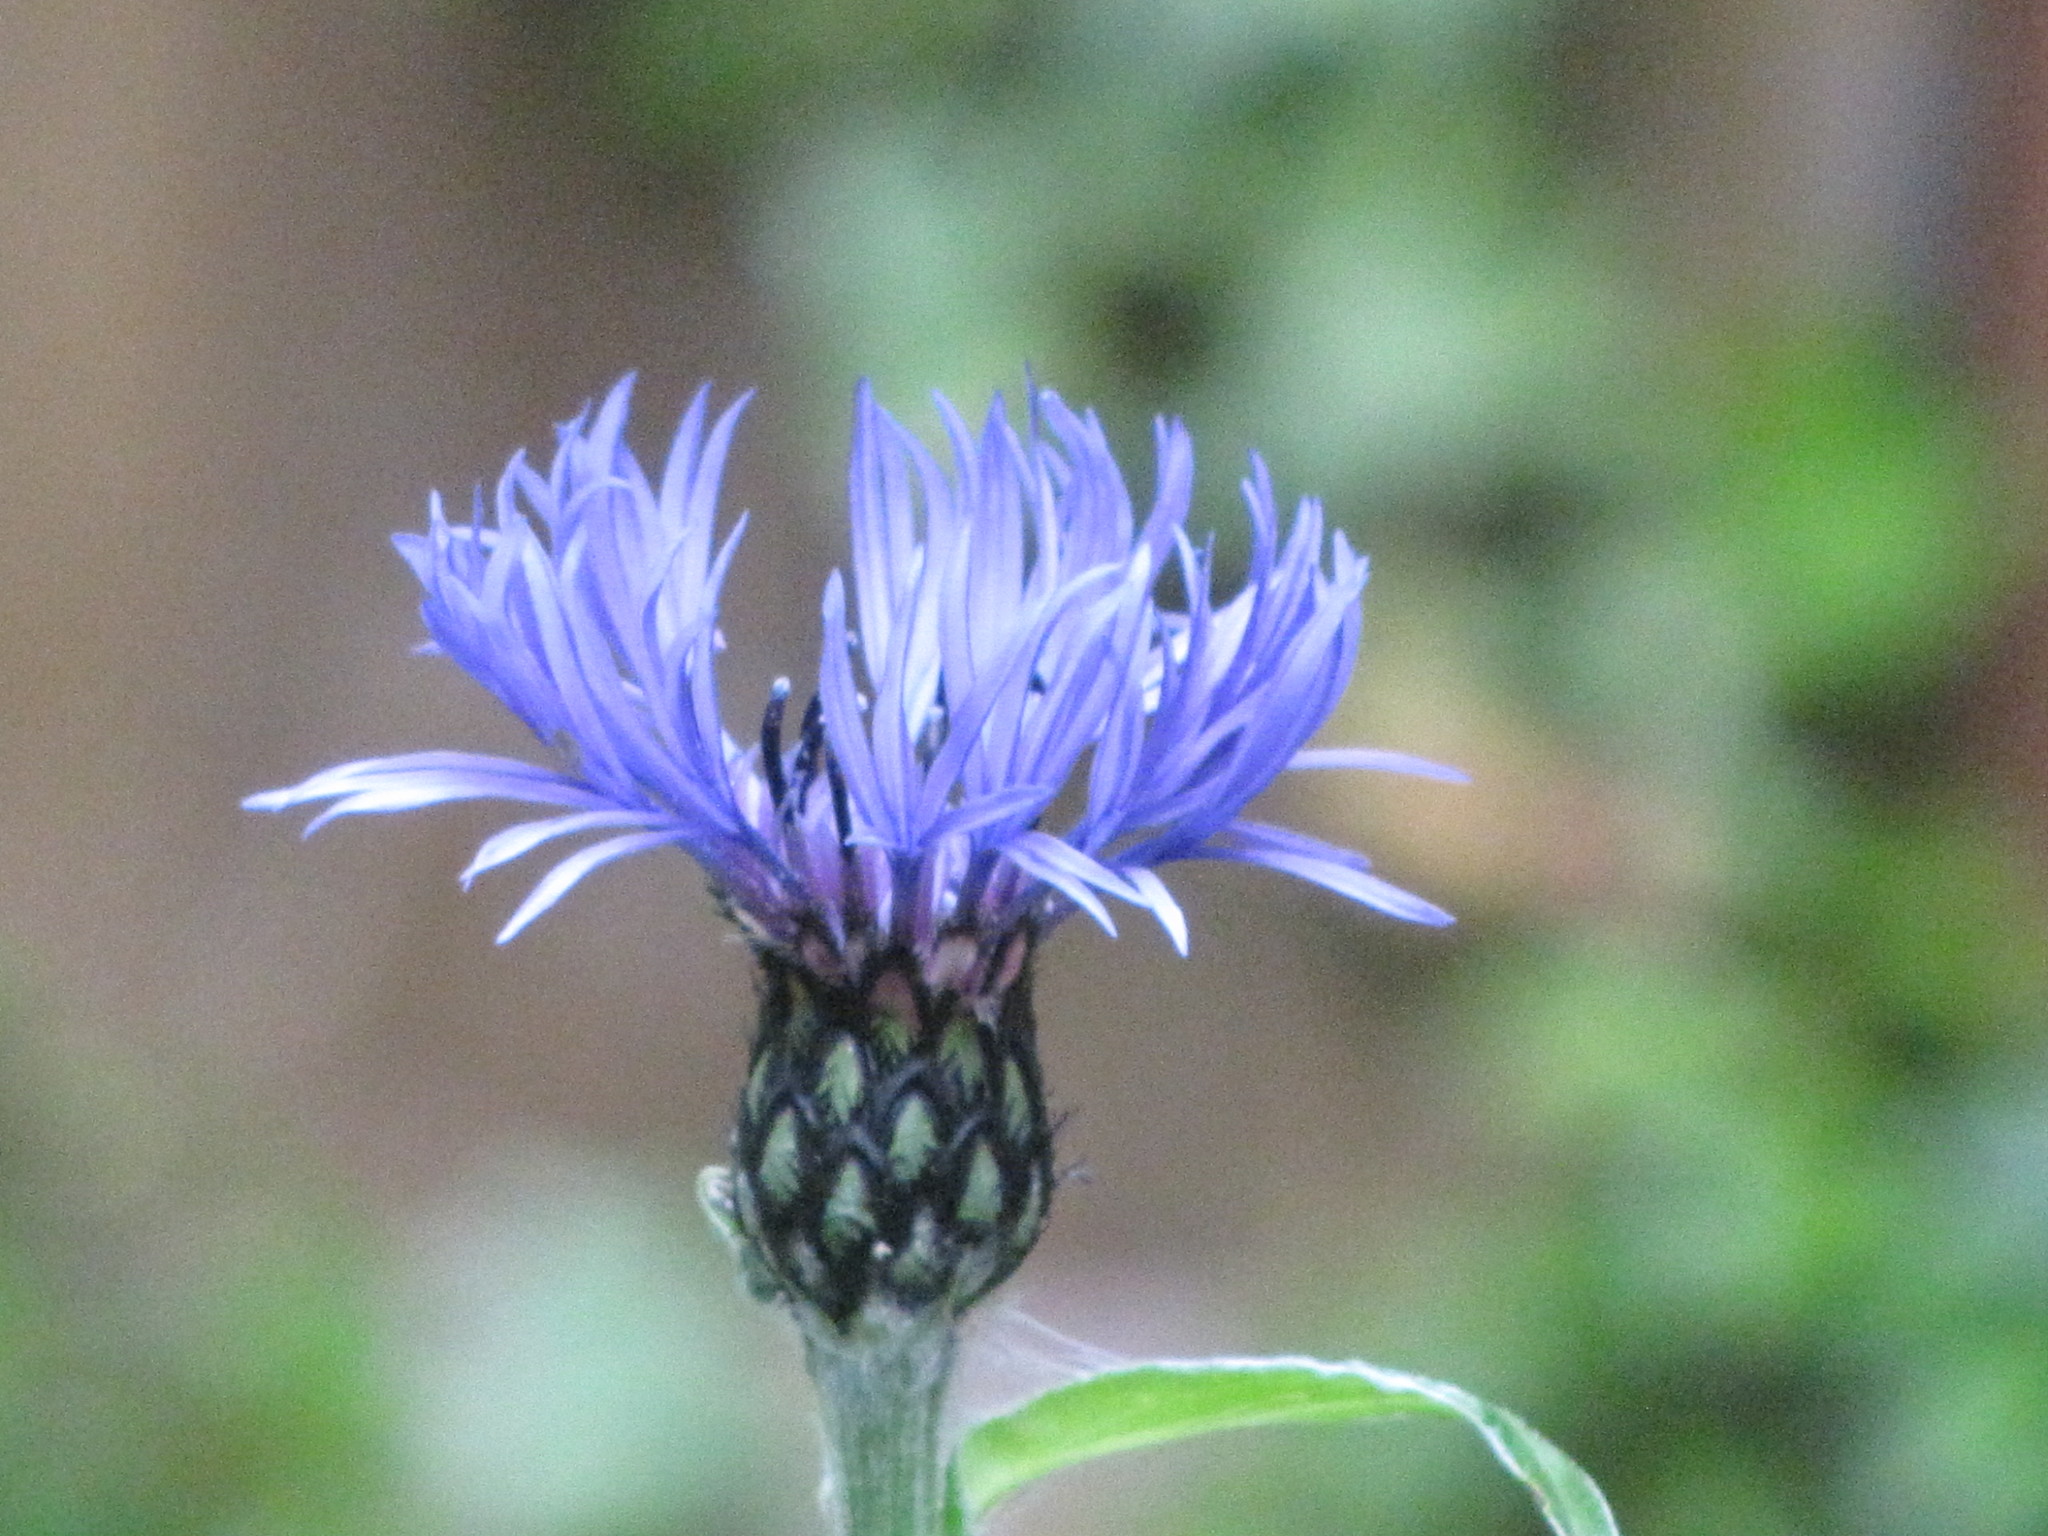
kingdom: Plantae
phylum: Tracheophyta
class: Magnoliopsida
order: Asterales
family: Asteraceae
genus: Centaurea
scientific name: Centaurea montana
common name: Perennial cornflower
